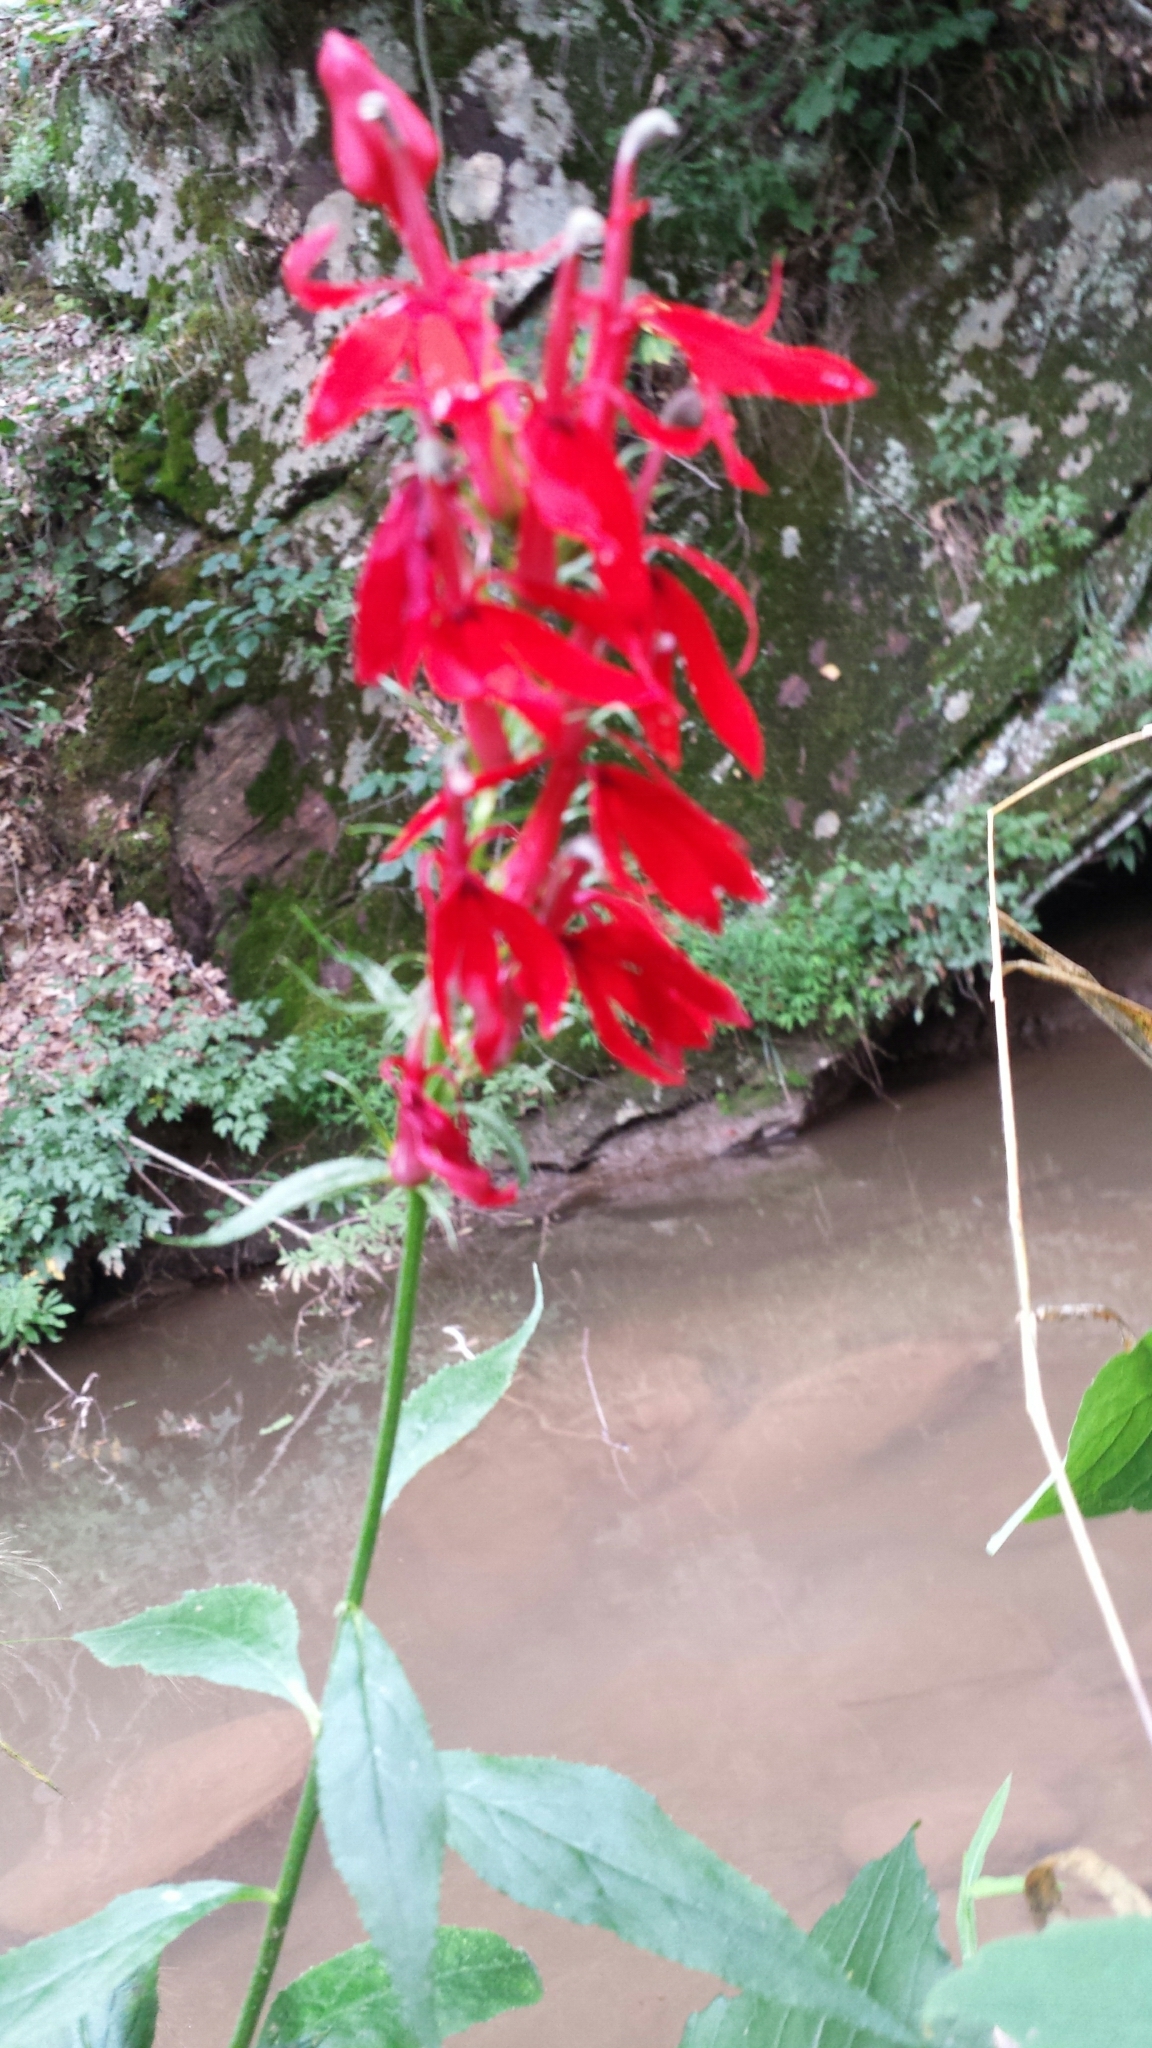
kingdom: Plantae
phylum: Tracheophyta
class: Magnoliopsida
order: Asterales
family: Campanulaceae
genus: Lobelia
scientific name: Lobelia cardinalis
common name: Cardinal flower
